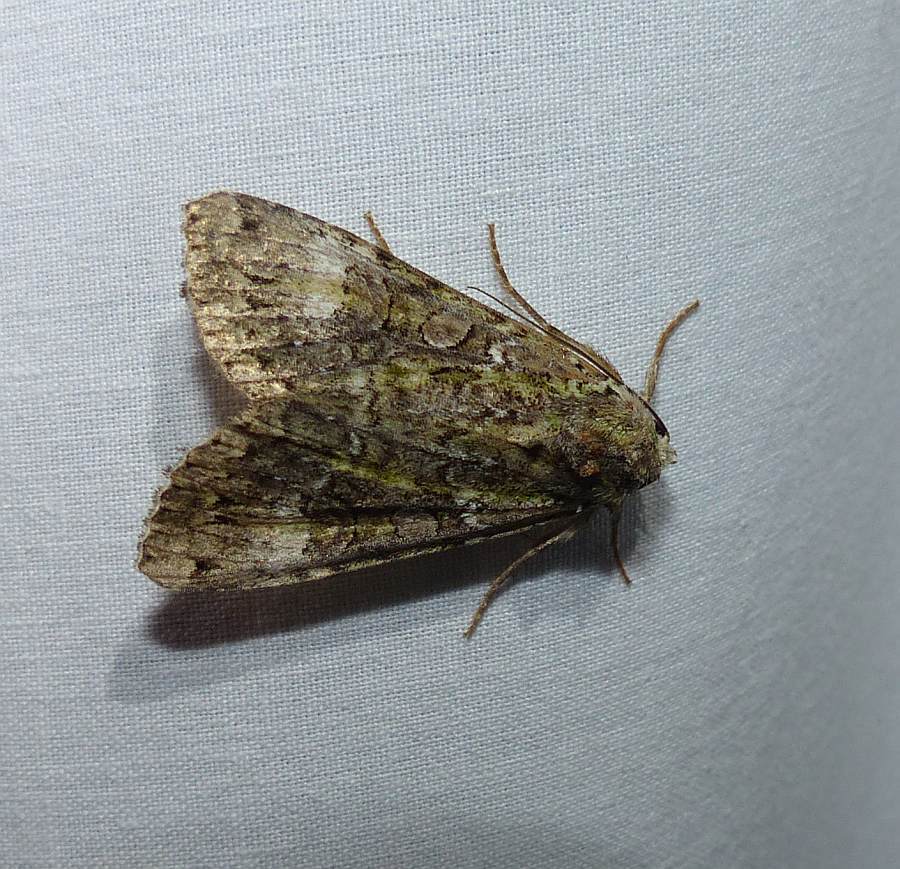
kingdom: Animalia
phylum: Arthropoda
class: Insecta
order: Lepidoptera
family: Noctuidae
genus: Anaplectoides
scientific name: Anaplectoides prasina
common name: Green arches
